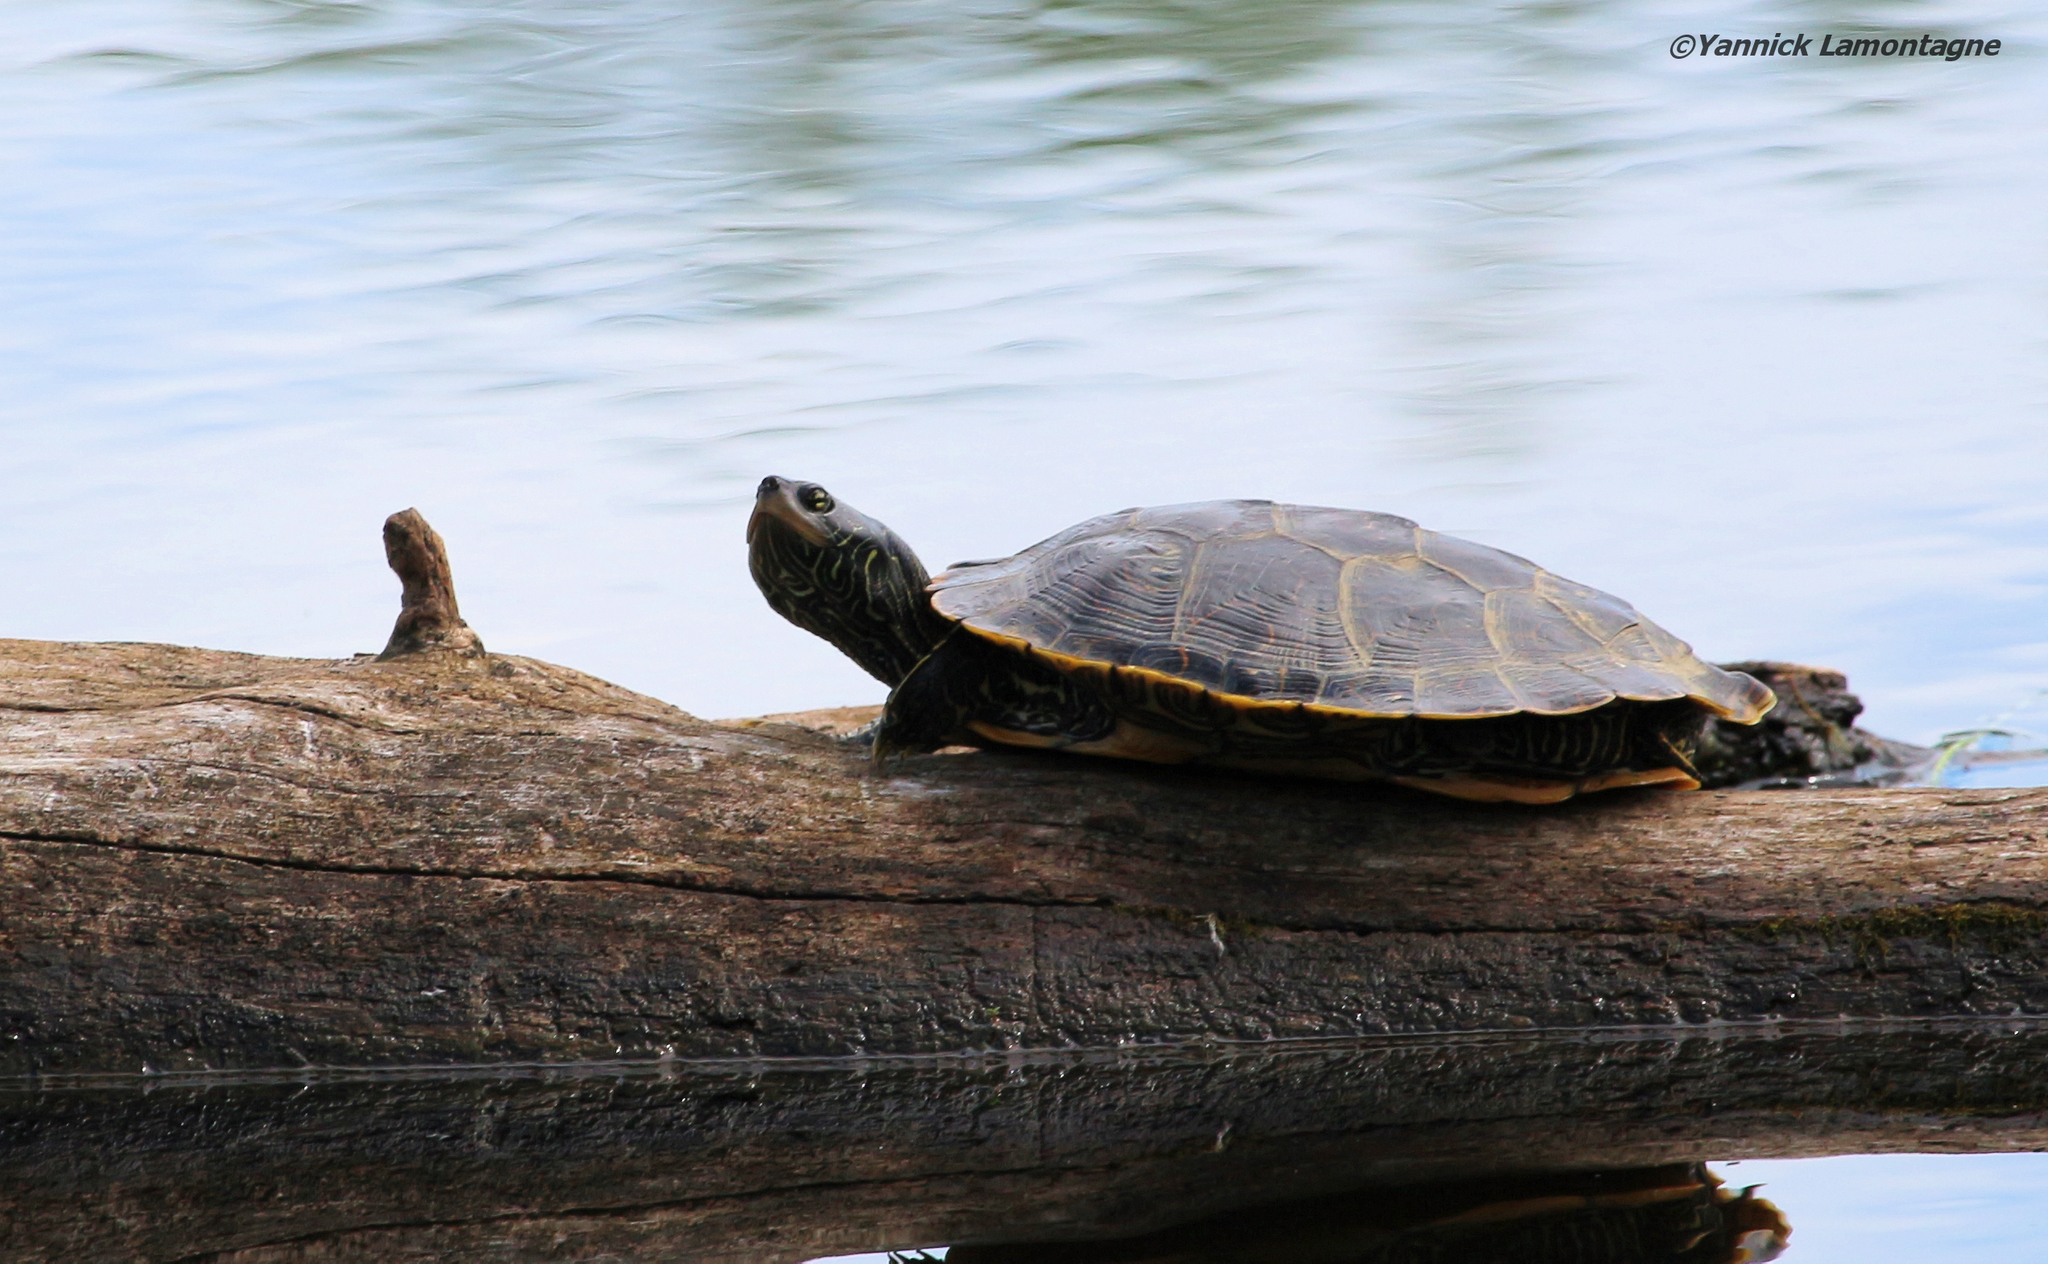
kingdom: Animalia
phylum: Chordata
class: Testudines
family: Emydidae
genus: Graptemys
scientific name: Graptemys geographica
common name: Common map turtle
